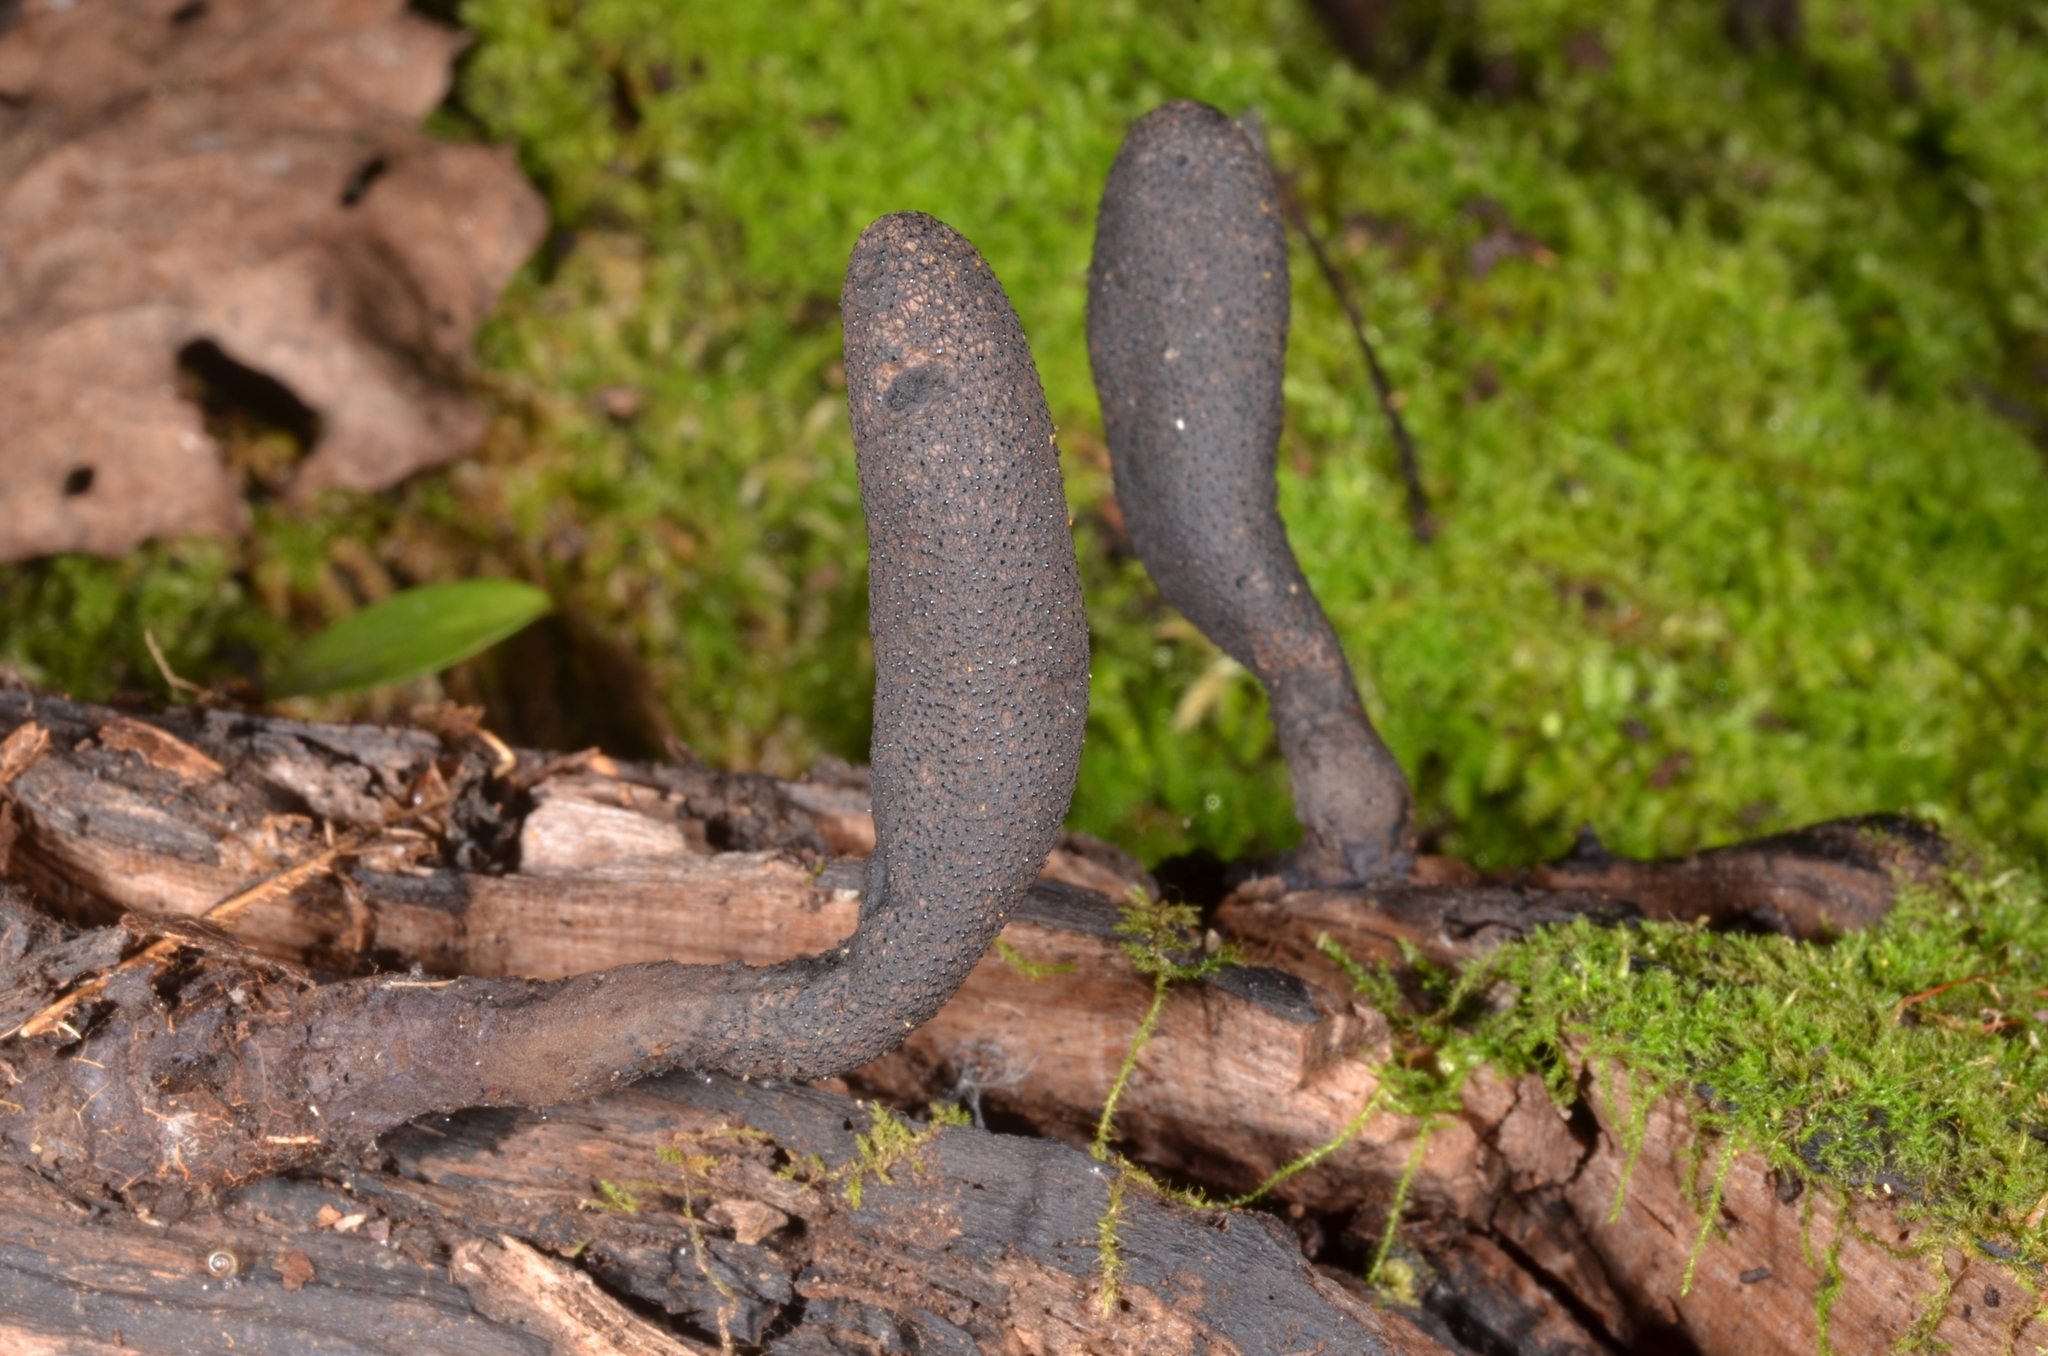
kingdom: Fungi
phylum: Ascomycota
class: Sordariomycetes
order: Xylariales
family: Xylariaceae
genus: Xylaria
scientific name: Xylaria primorskensis
